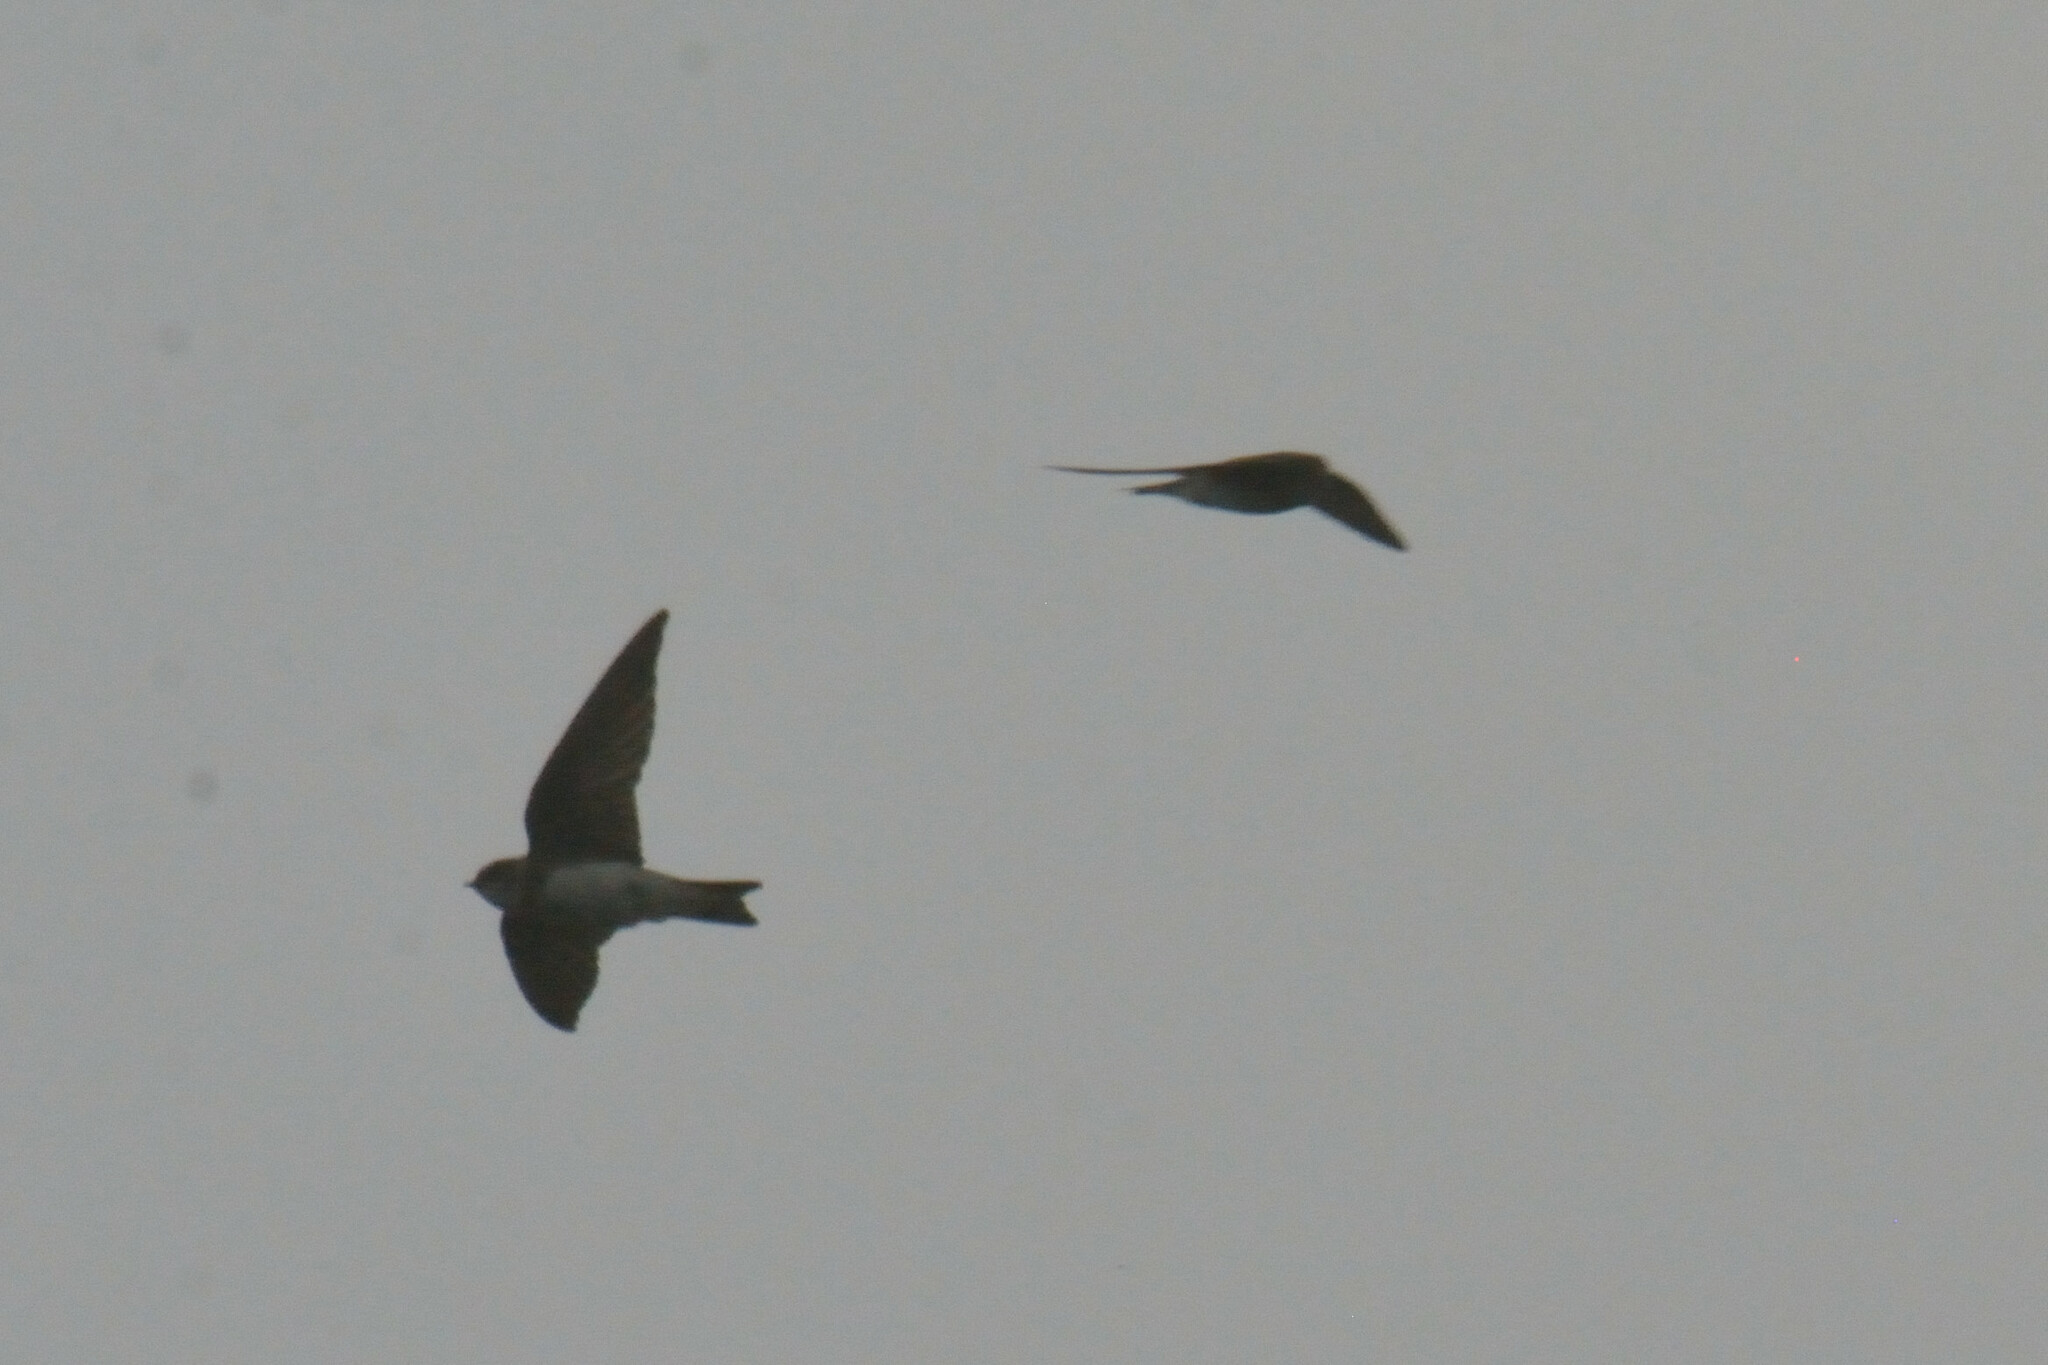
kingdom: Animalia
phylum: Chordata
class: Aves
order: Passeriformes
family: Hirundinidae
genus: Riparia
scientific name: Riparia riparia
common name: Sand martin
